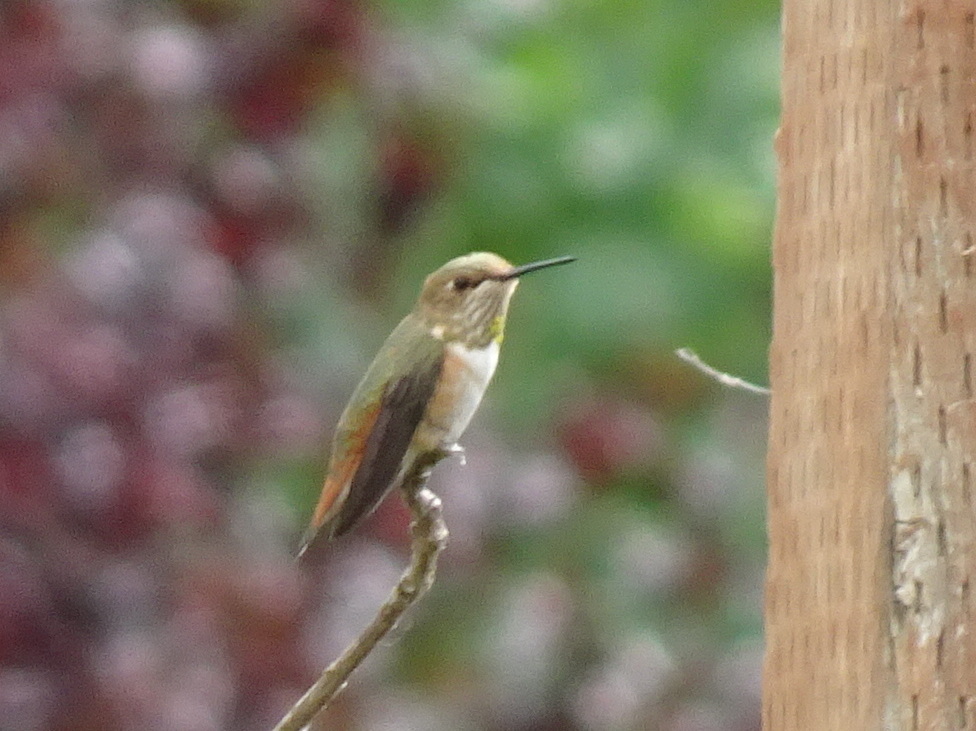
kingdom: Animalia
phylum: Chordata
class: Aves
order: Apodiformes
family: Trochilidae
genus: Selasphorus
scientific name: Selasphorus rufus
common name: Rufous hummingbird
